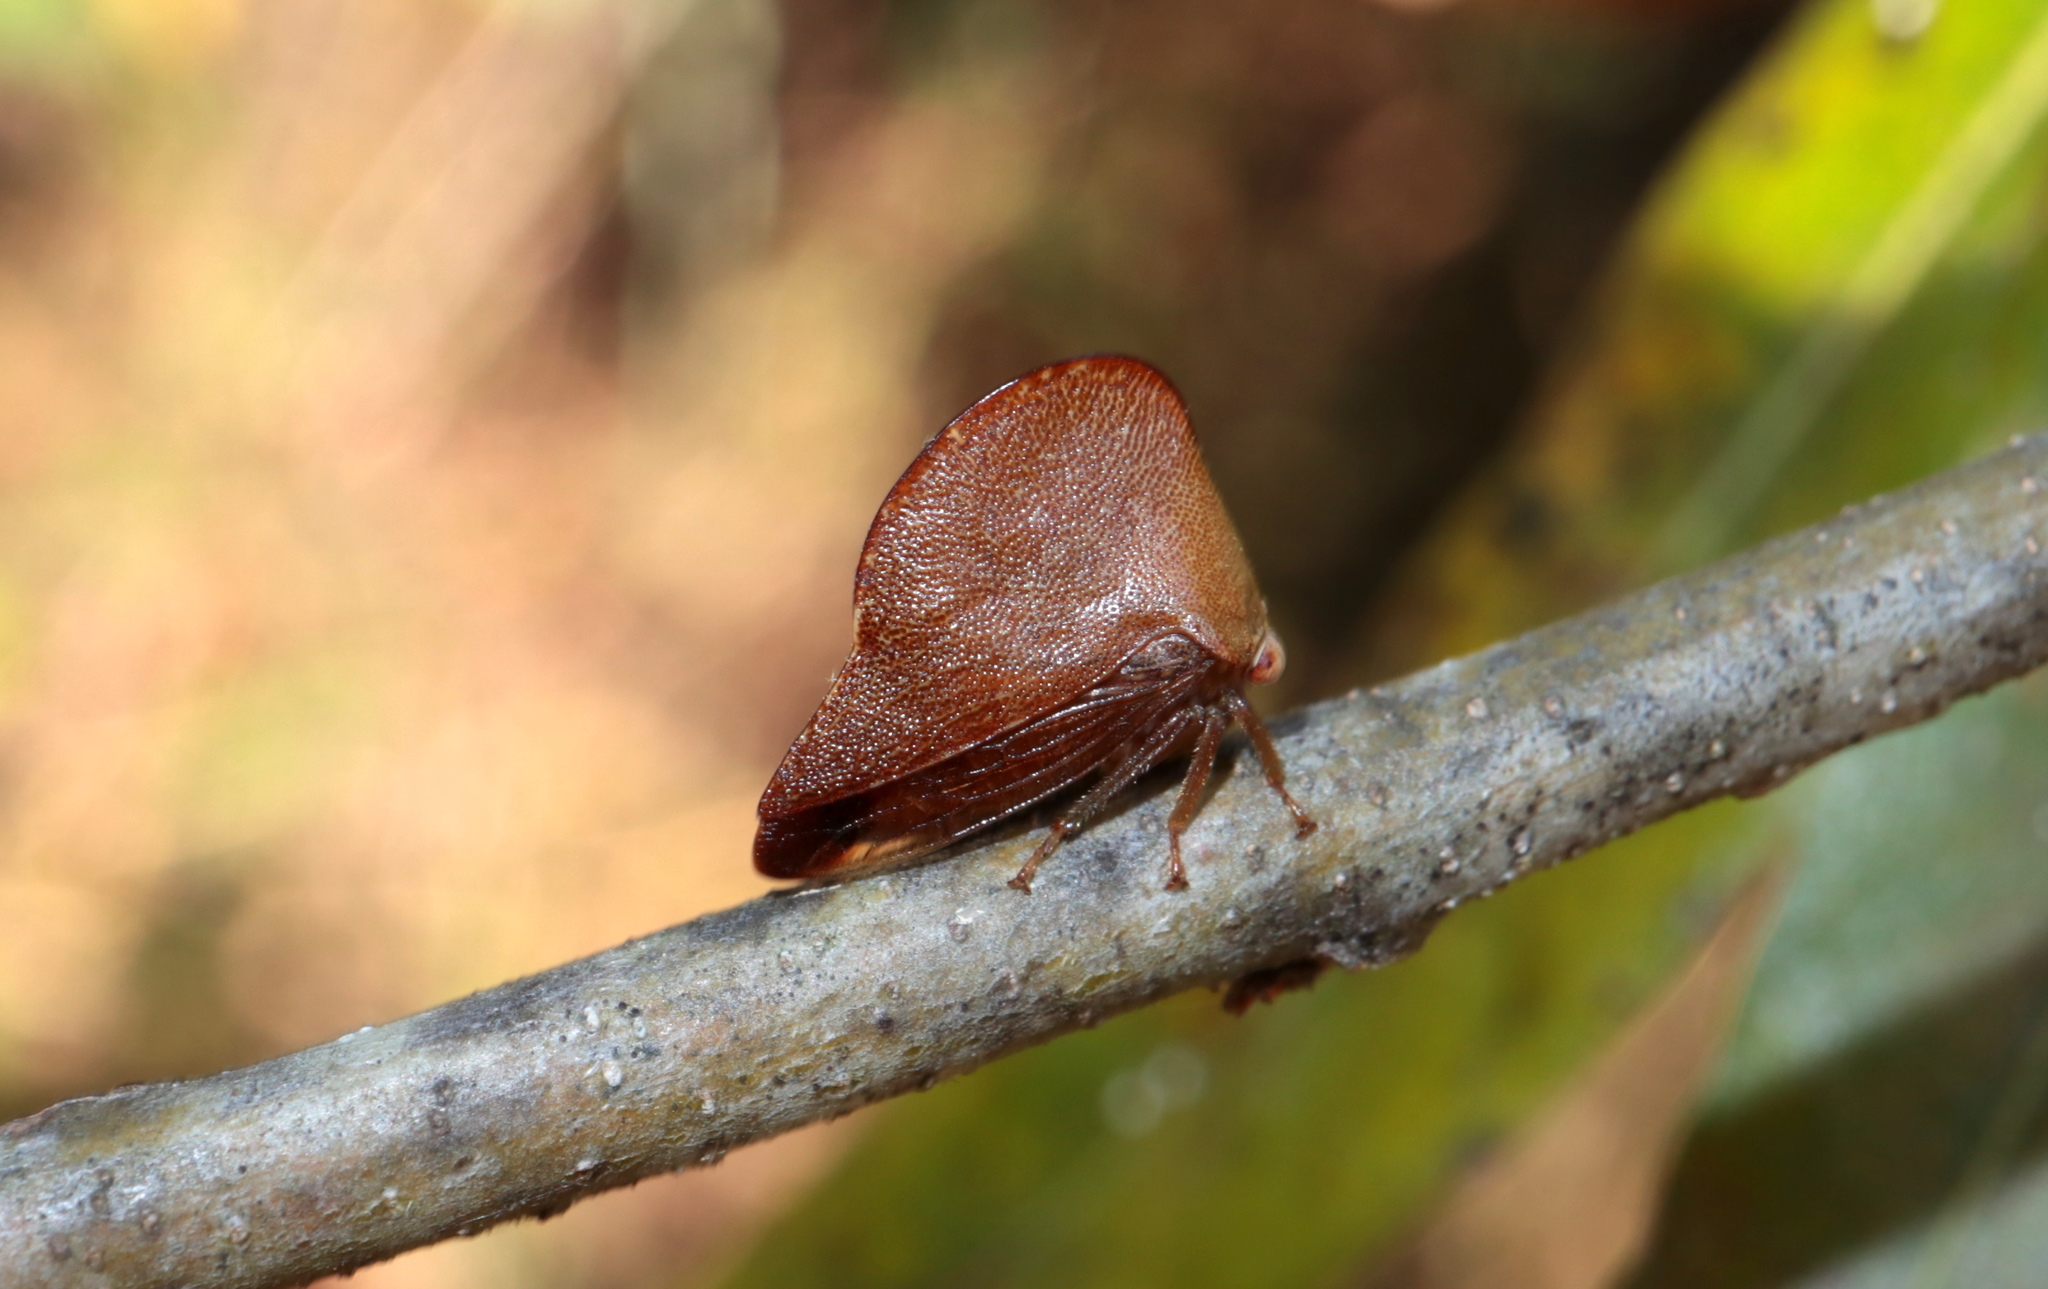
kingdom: Animalia
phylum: Arthropoda
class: Insecta
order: Hemiptera
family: Membracidae
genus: Archasia
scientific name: Archasia pallida
